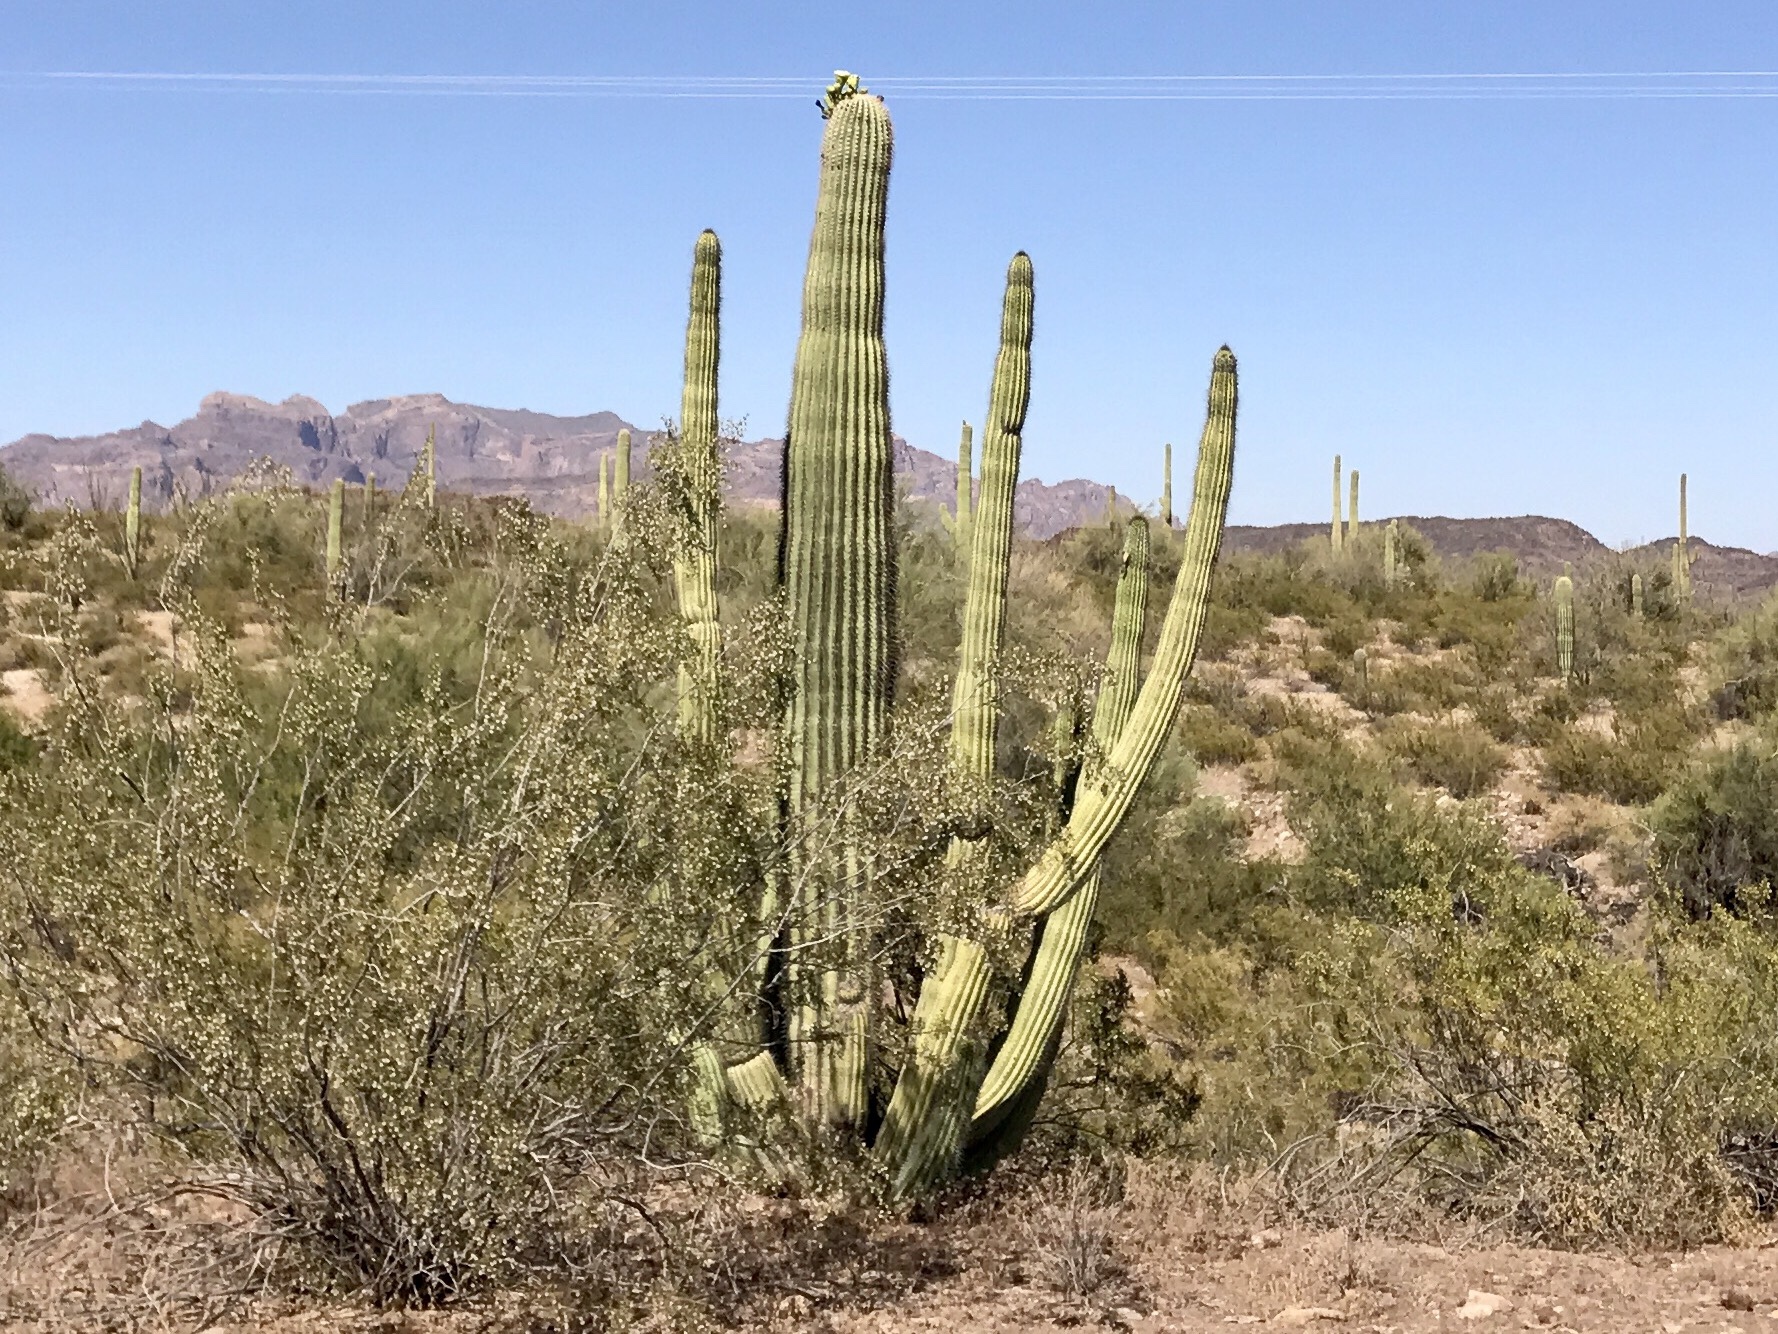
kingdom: Plantae
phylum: Tracheophyta
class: Magnoliopsida
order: Caryophyllales
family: Cactaceae
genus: Stenocereus
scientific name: Stenocereus thurberi
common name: Organ pipe cactus
